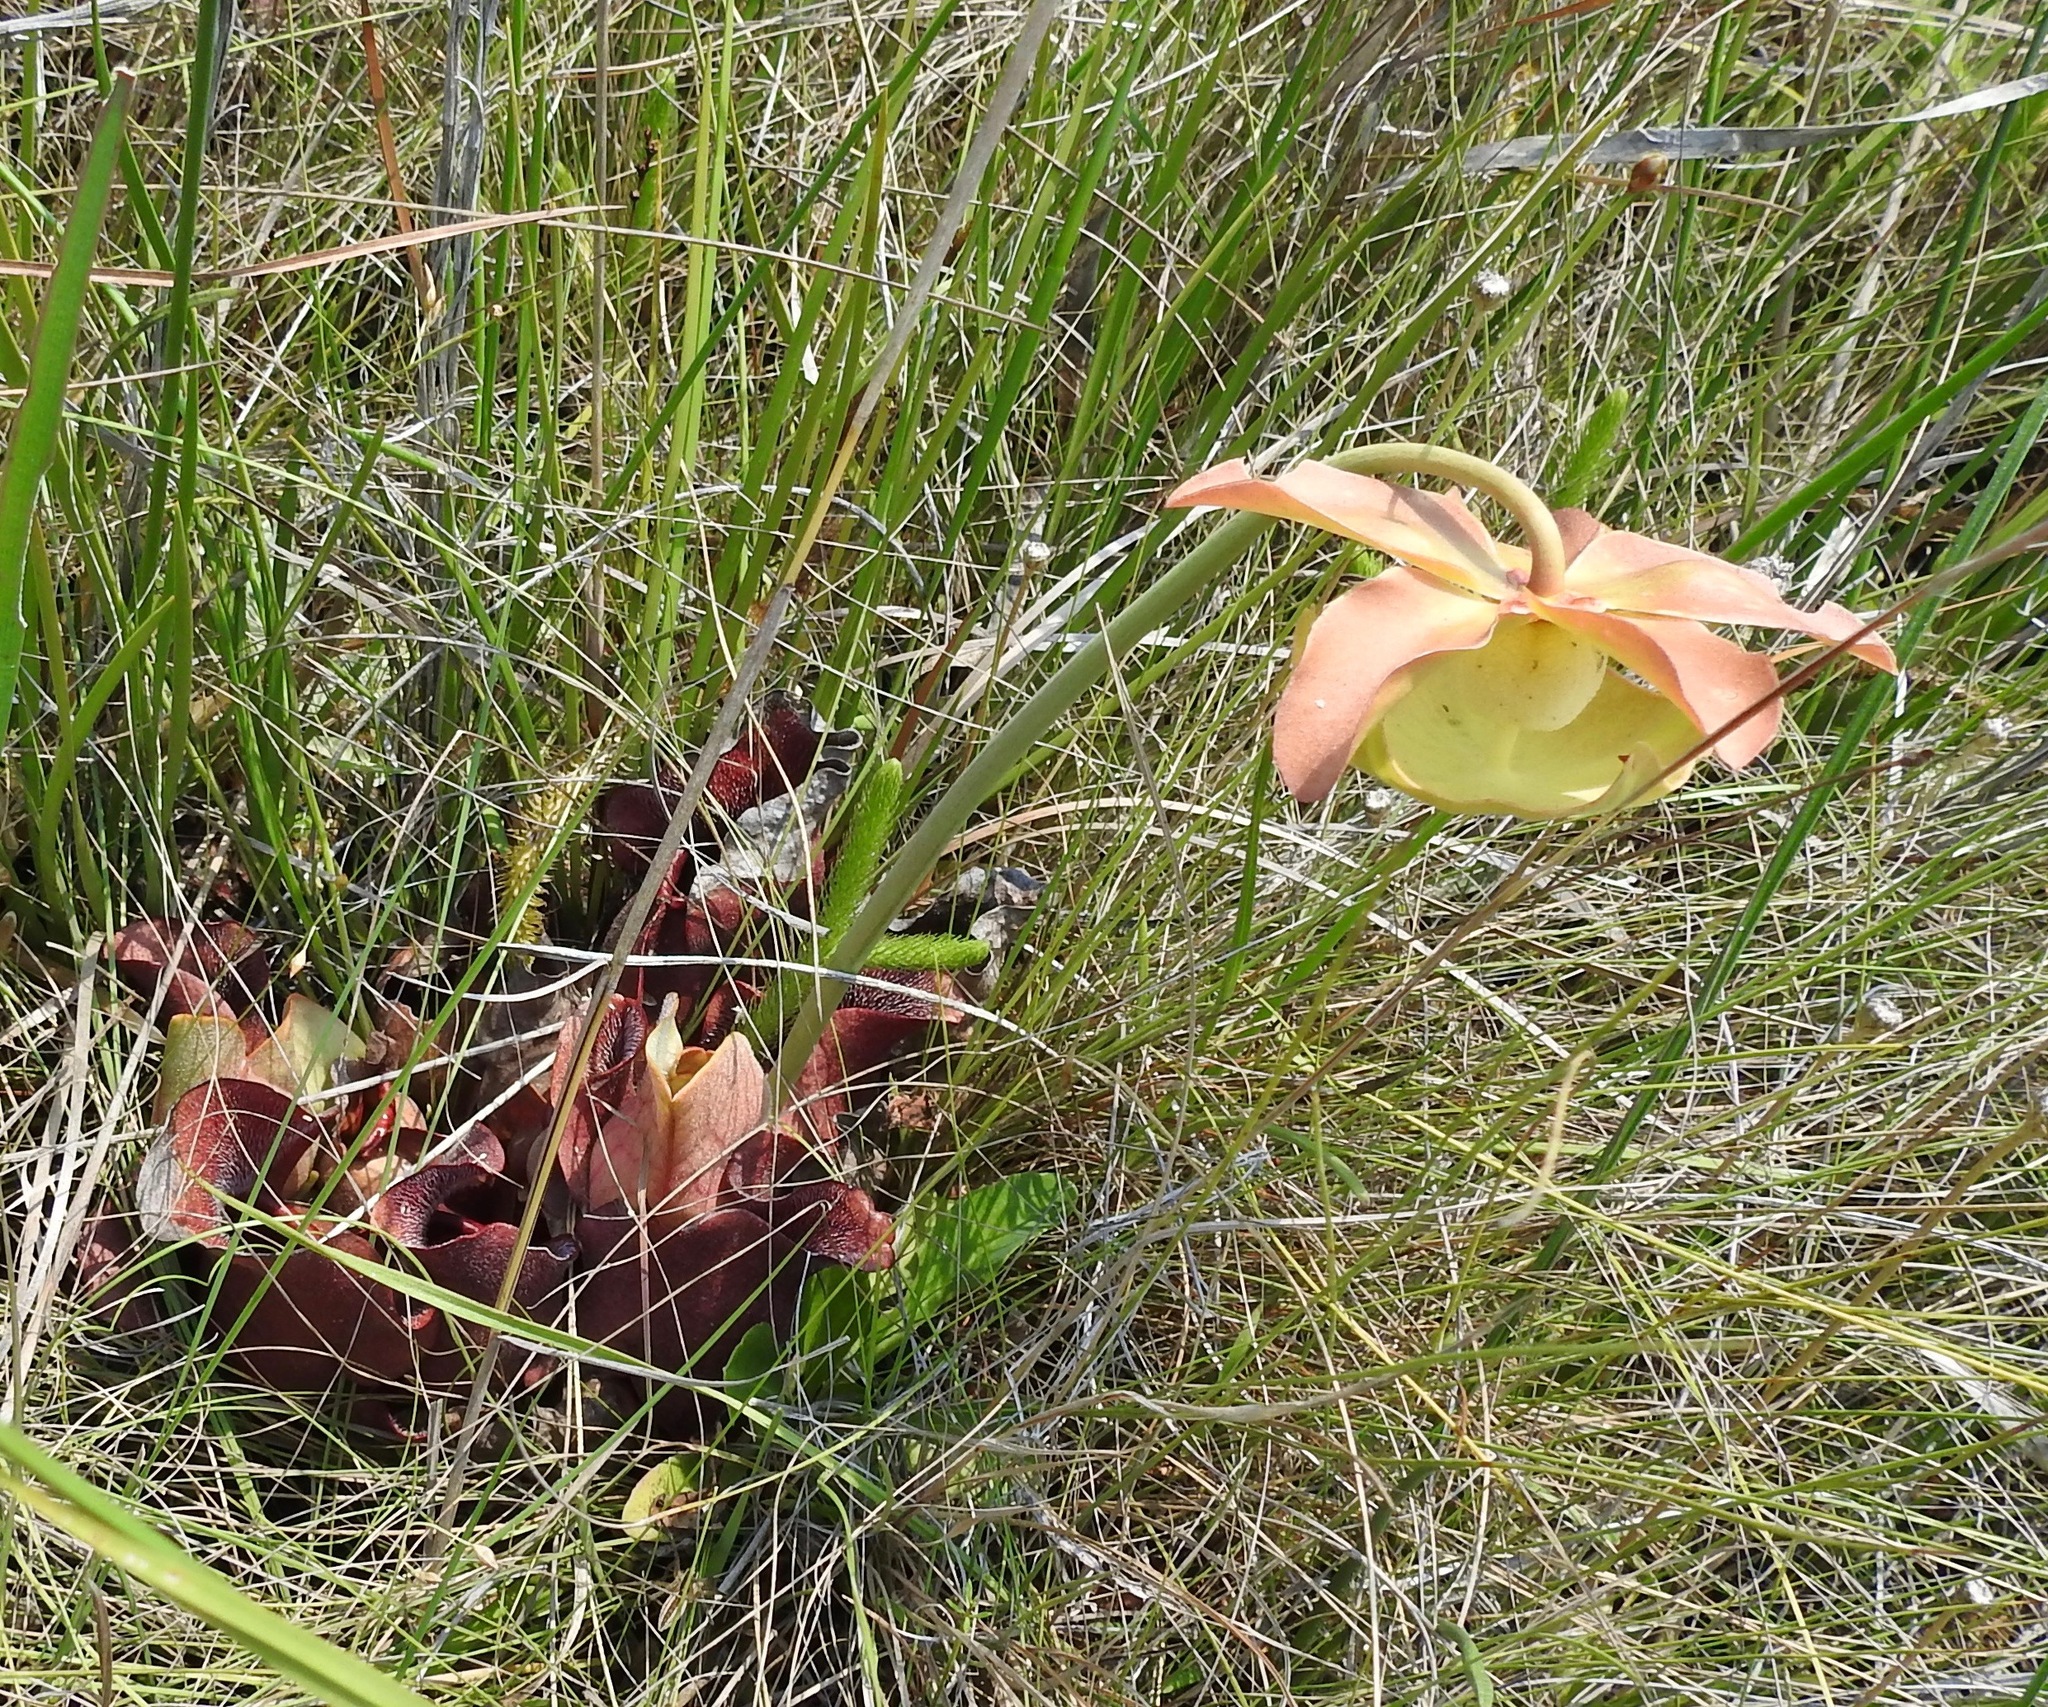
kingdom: Plantae
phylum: Tracheophyta
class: Magnoliopsida
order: Ericales
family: Sarraceniaceae
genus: Sarracenia
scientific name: Sarracenia rosea
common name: Pink pitcherplant
